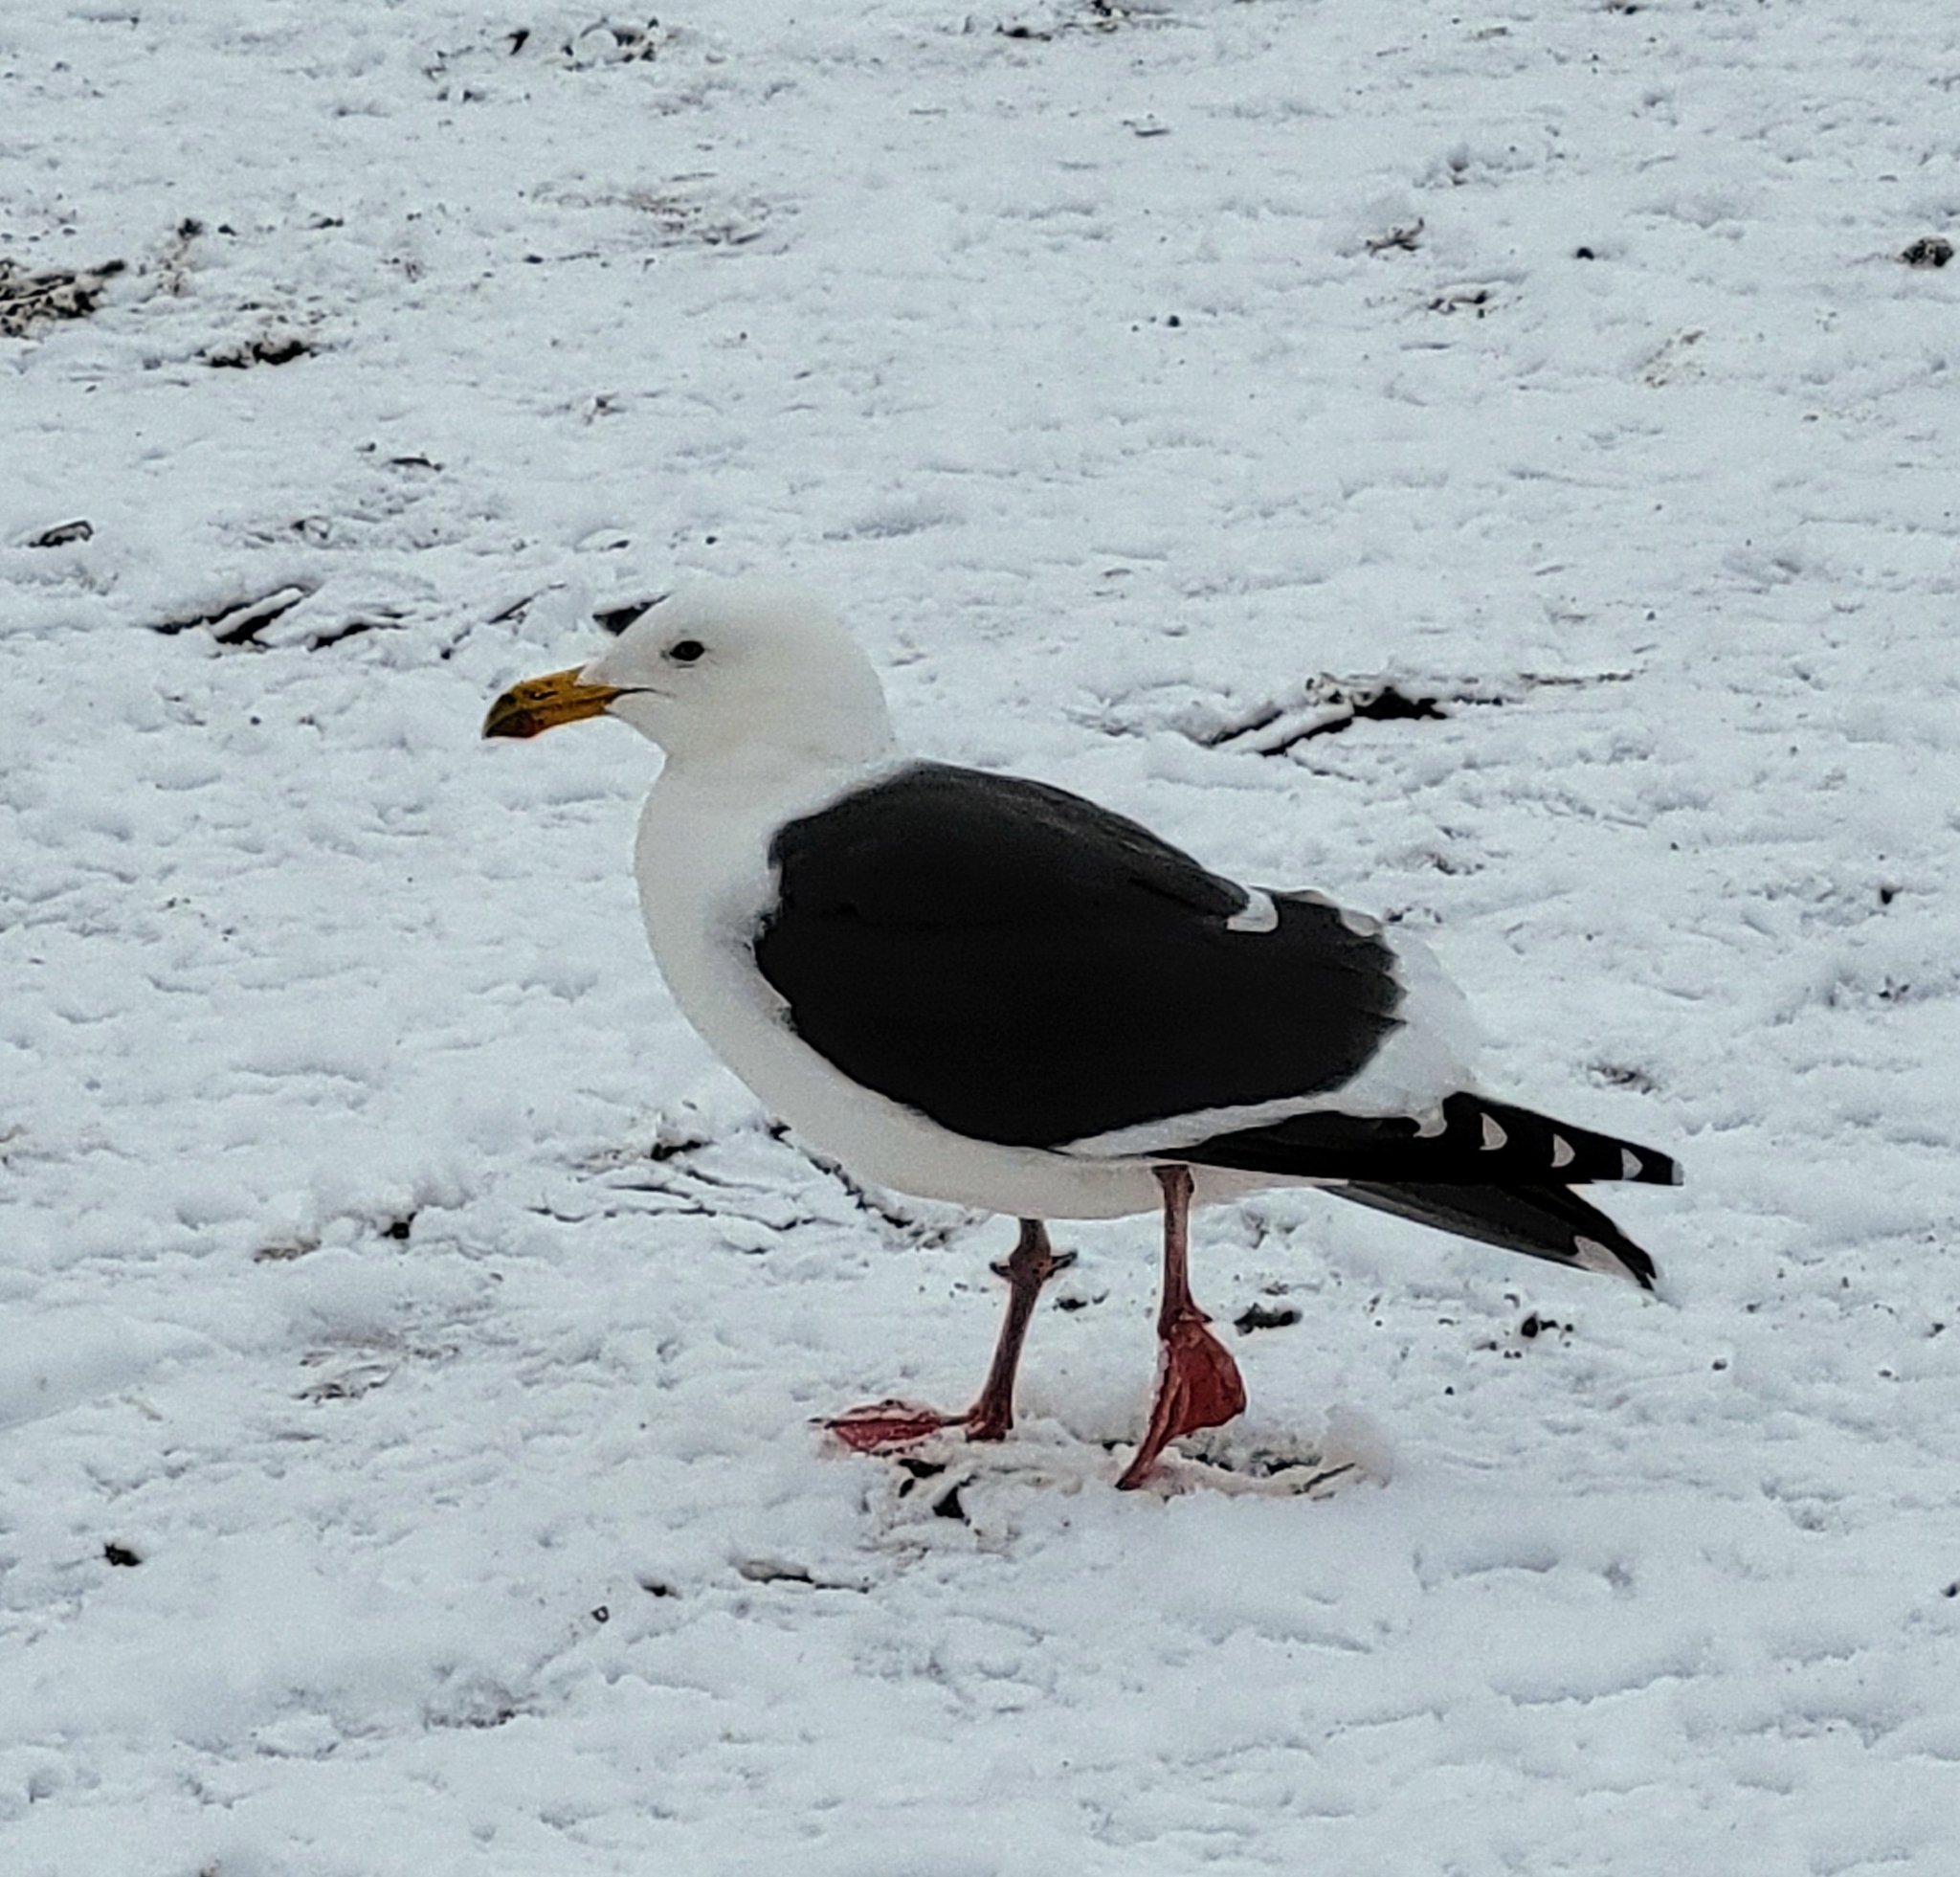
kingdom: Animalia
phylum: Chordata
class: Aves
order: Charadriiformes
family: Laridae
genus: Larus
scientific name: Larus occidentalis
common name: Western gull
